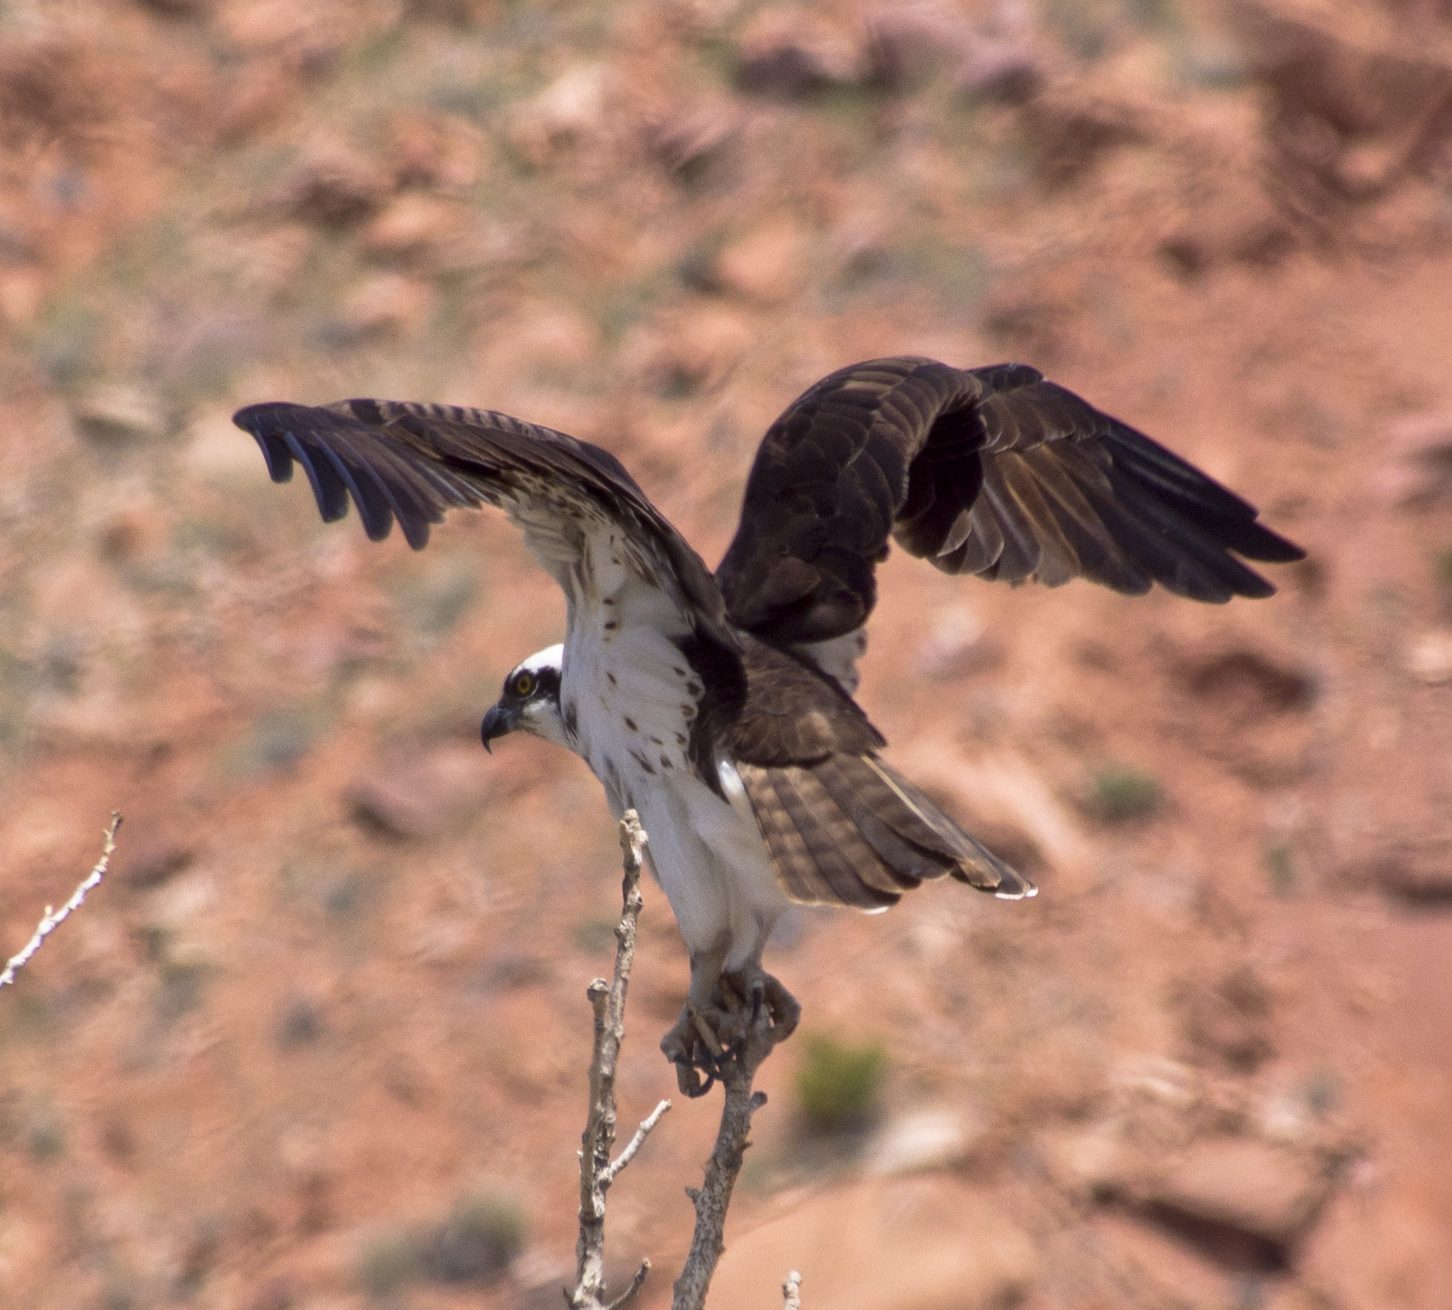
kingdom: Animalia
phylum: Chordata
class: Aves
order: Accipitriformes
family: Pandionidae
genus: Pandion
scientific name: Pandion haliaetus
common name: Osprey
